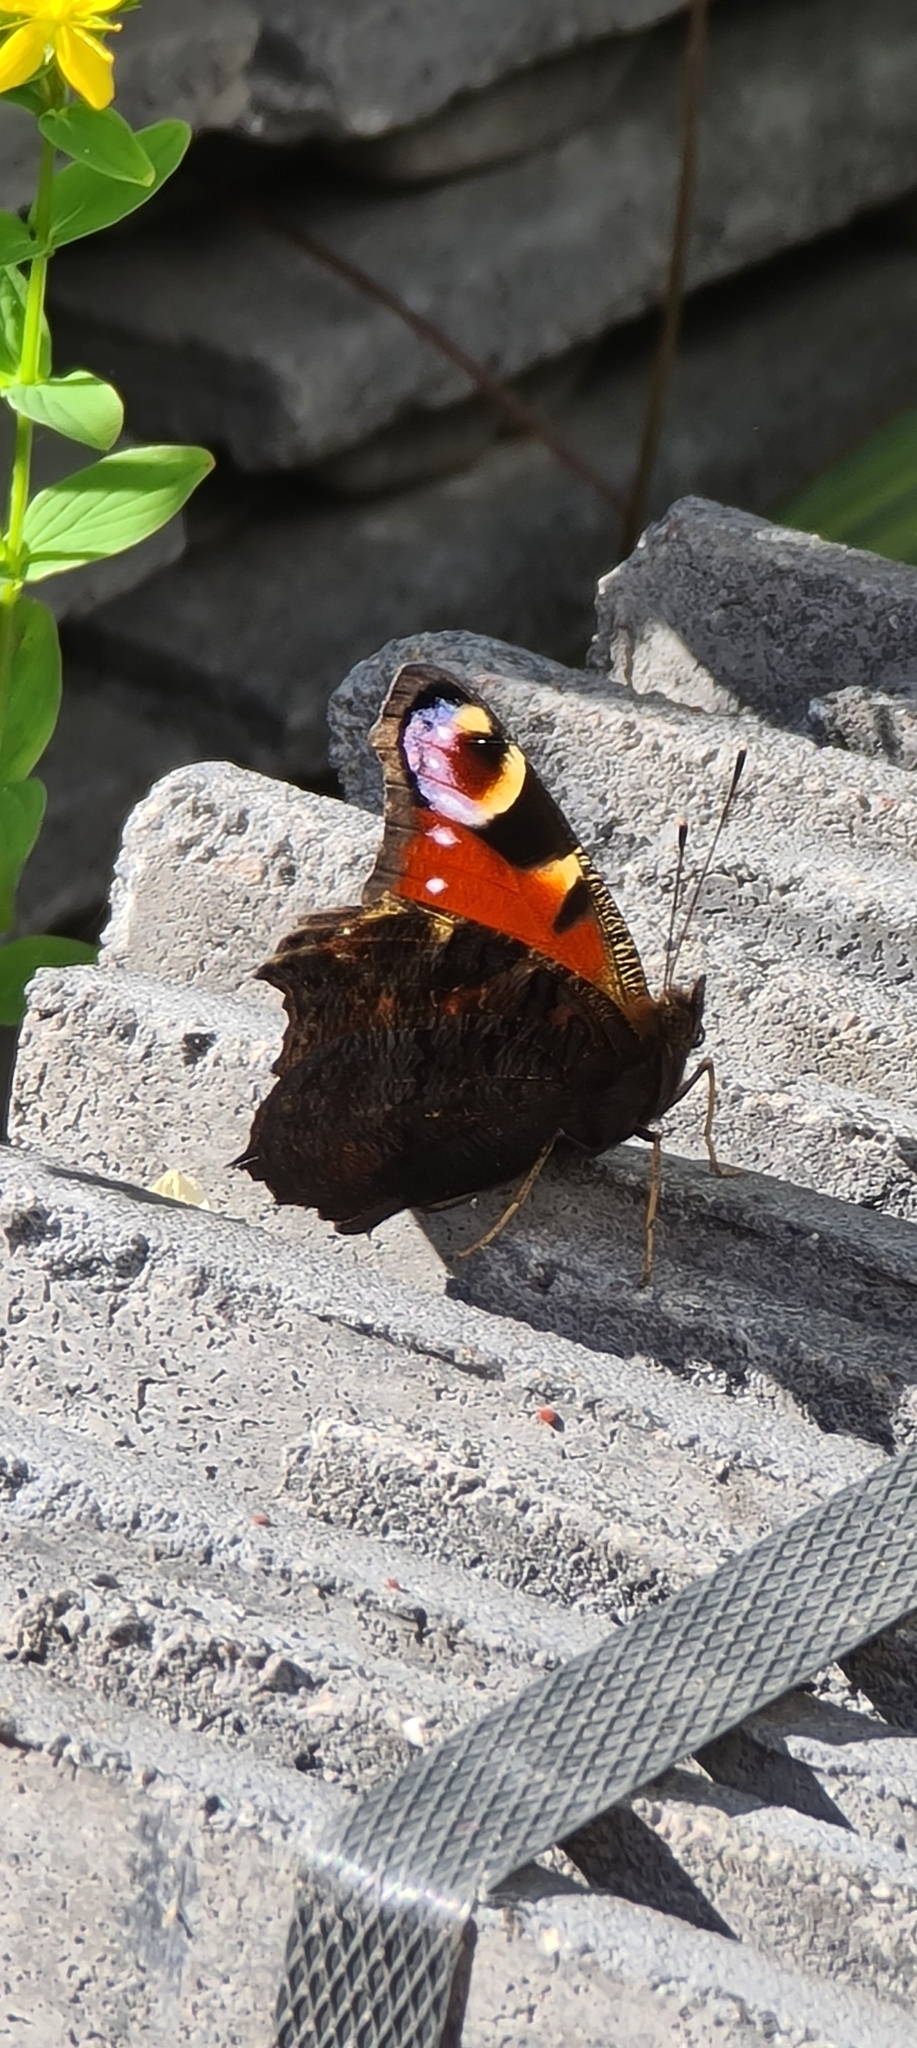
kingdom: Animalia
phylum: Arthropoda
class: Insecta
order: Lepidoptera
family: Nymphalidae
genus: Aglais
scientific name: Aglais io
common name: Peacock
